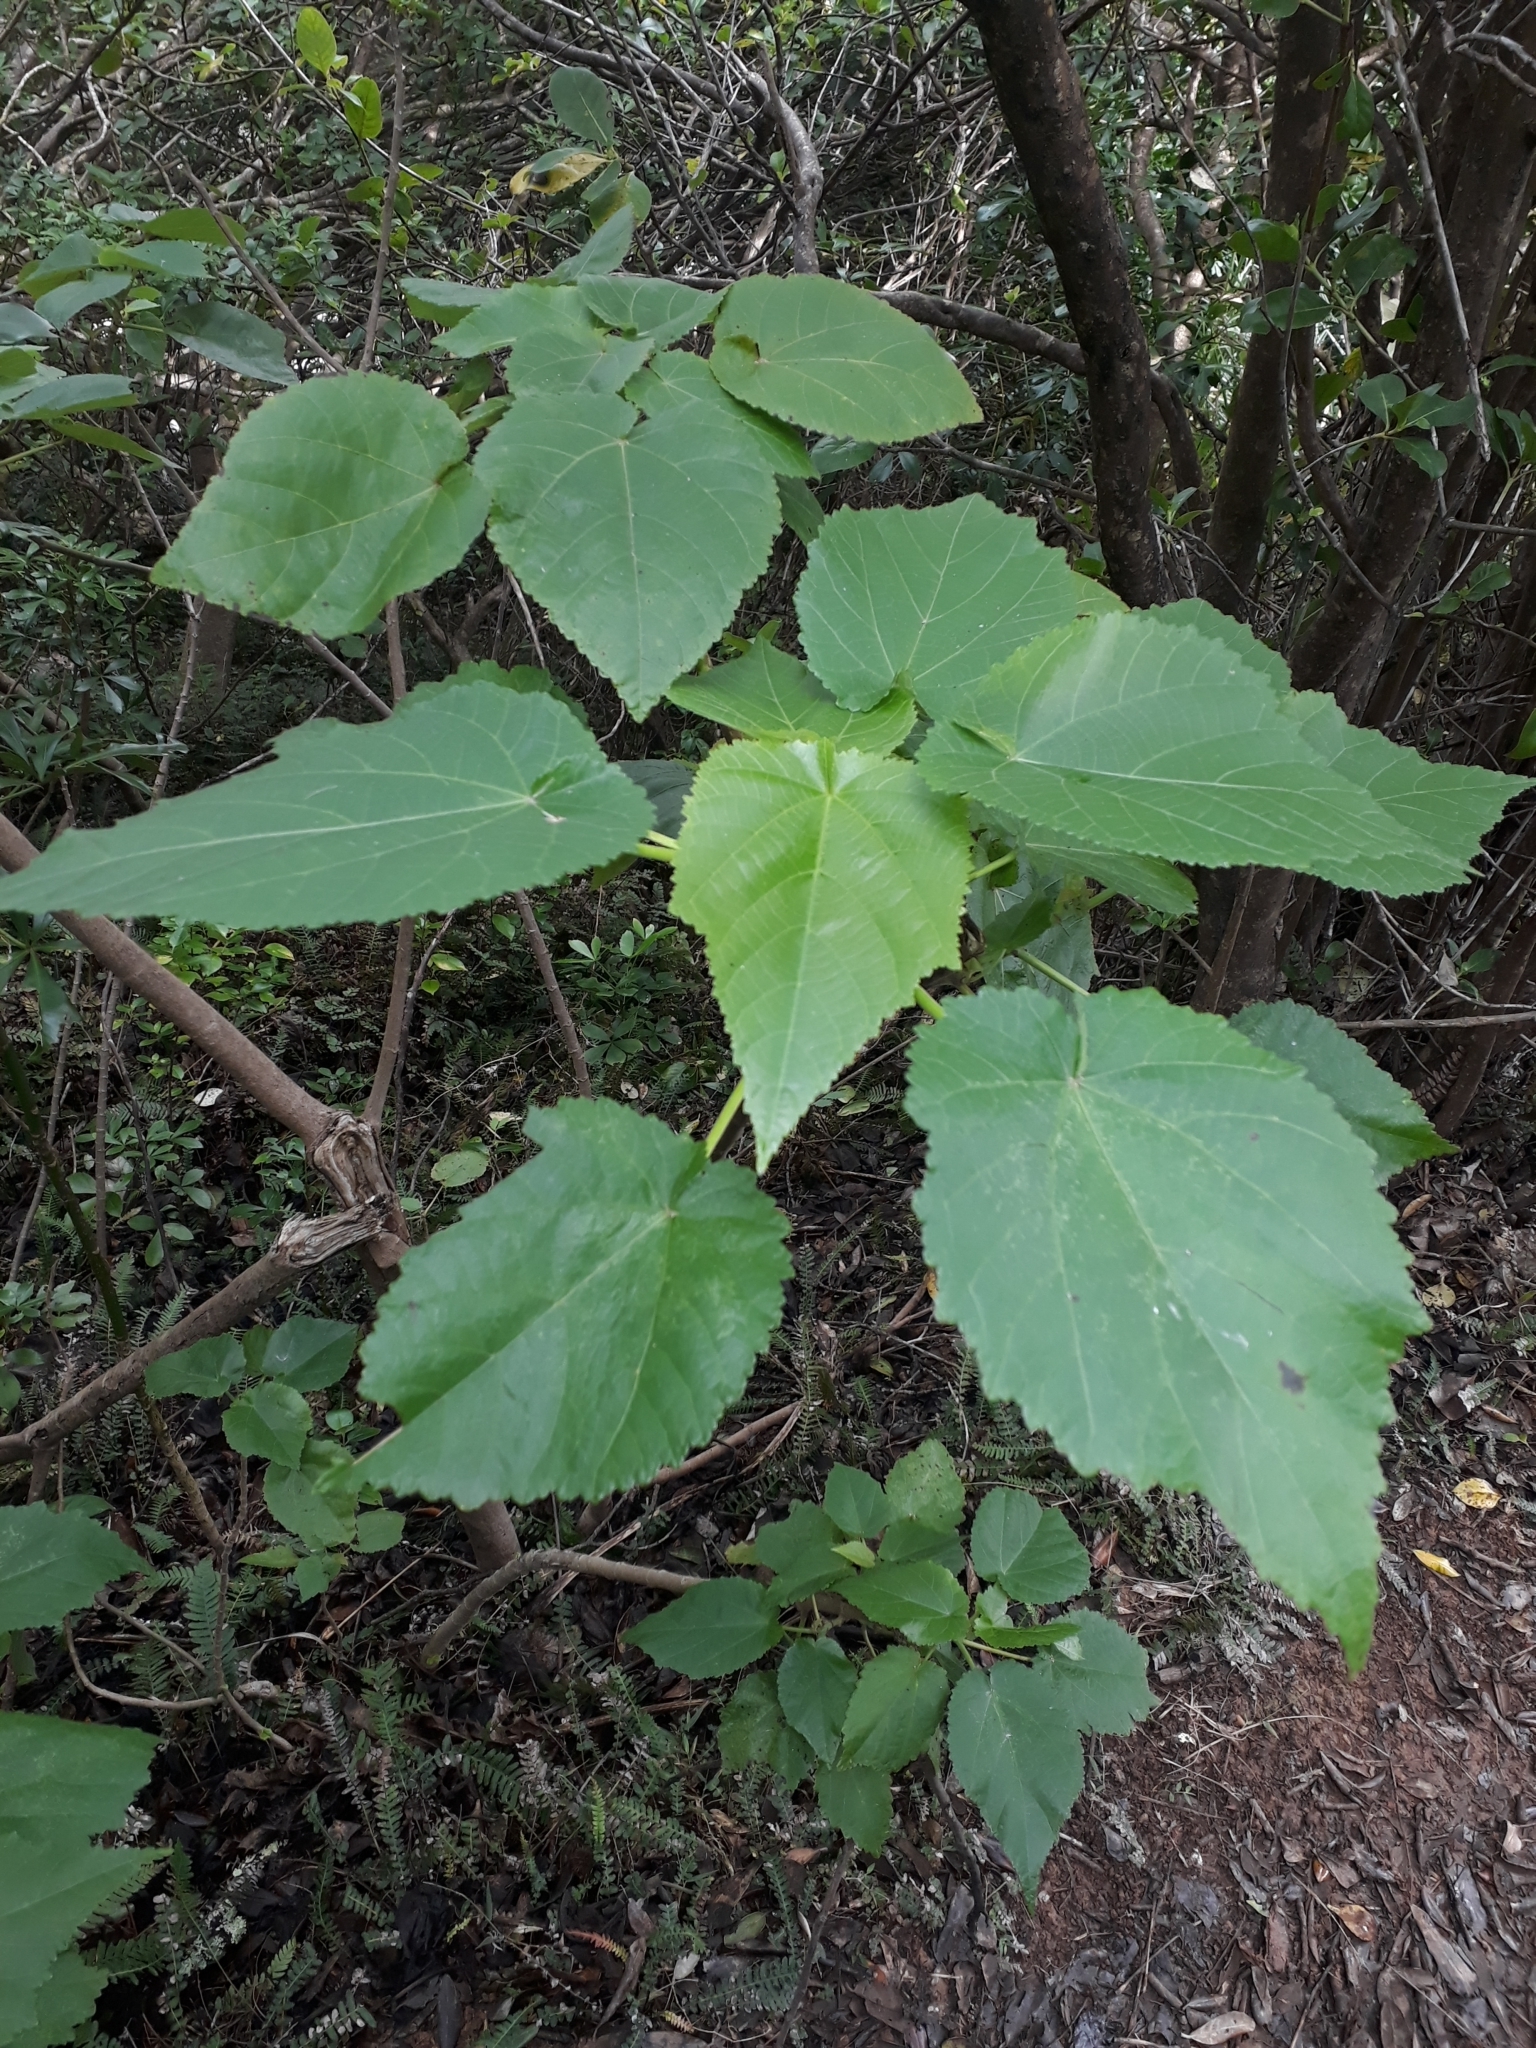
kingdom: Plantae
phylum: Tracheophyta
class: Magnoliopsida
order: Malvales
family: Malvaceae
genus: Entelea
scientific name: Entelea arborescens
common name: New zealand-mulberry
